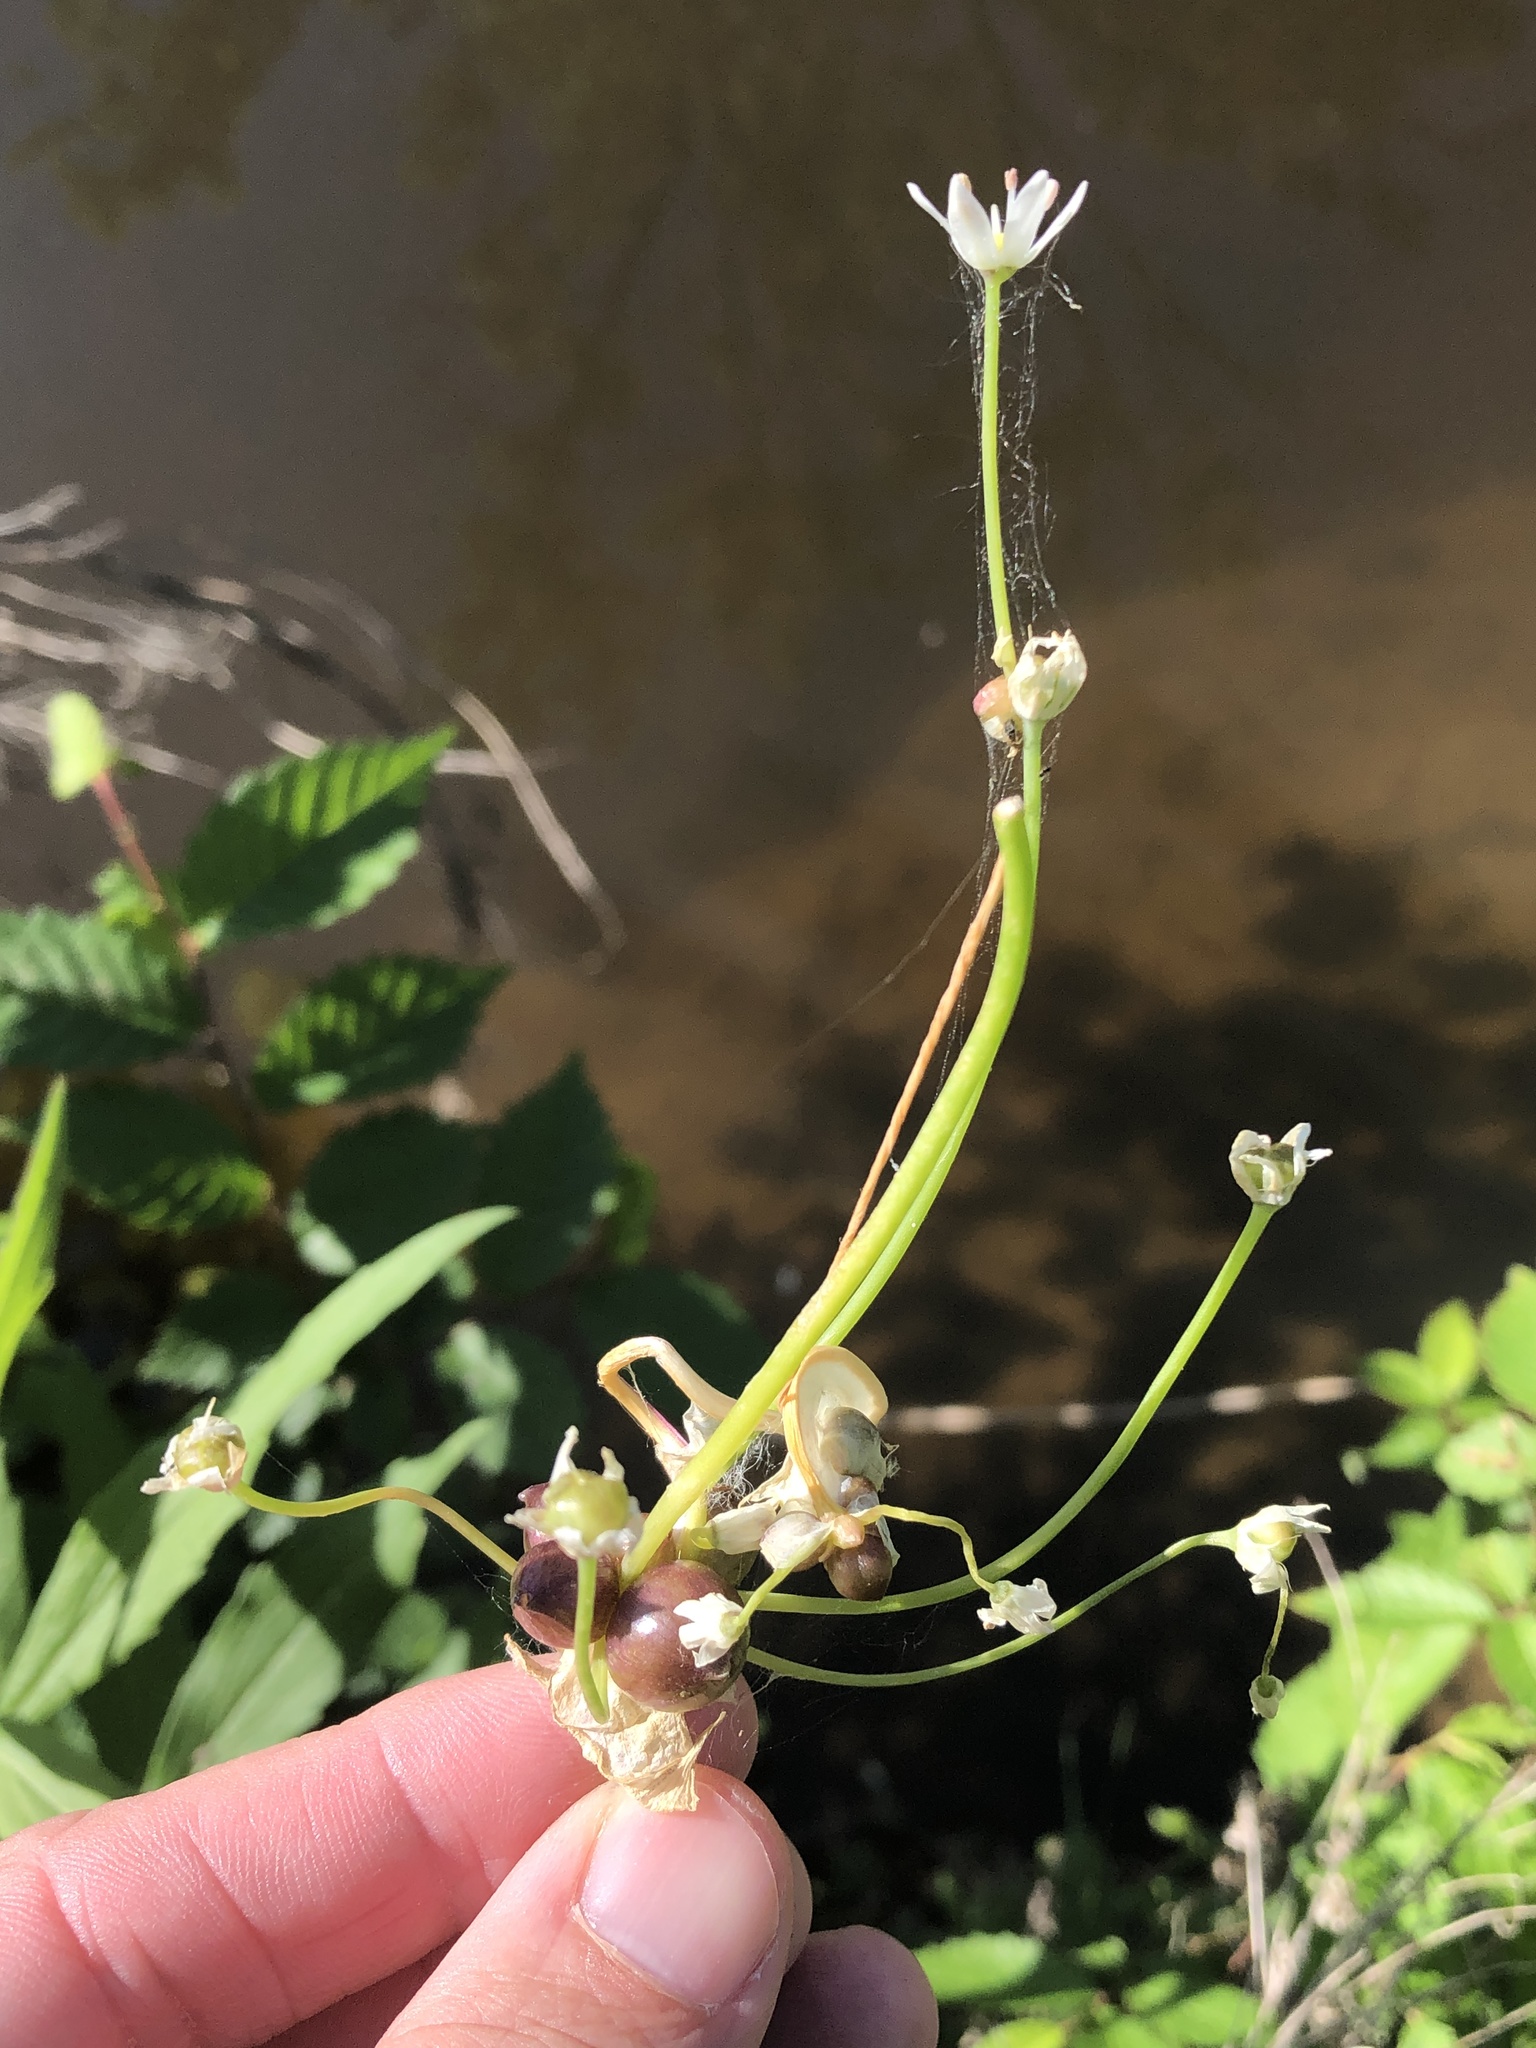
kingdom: Plantae
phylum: Tracheophyta
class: Liliopsida
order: Asparagales
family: Amaryllidaceae
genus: Allium
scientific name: Allium canadense
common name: Meadow garlic
